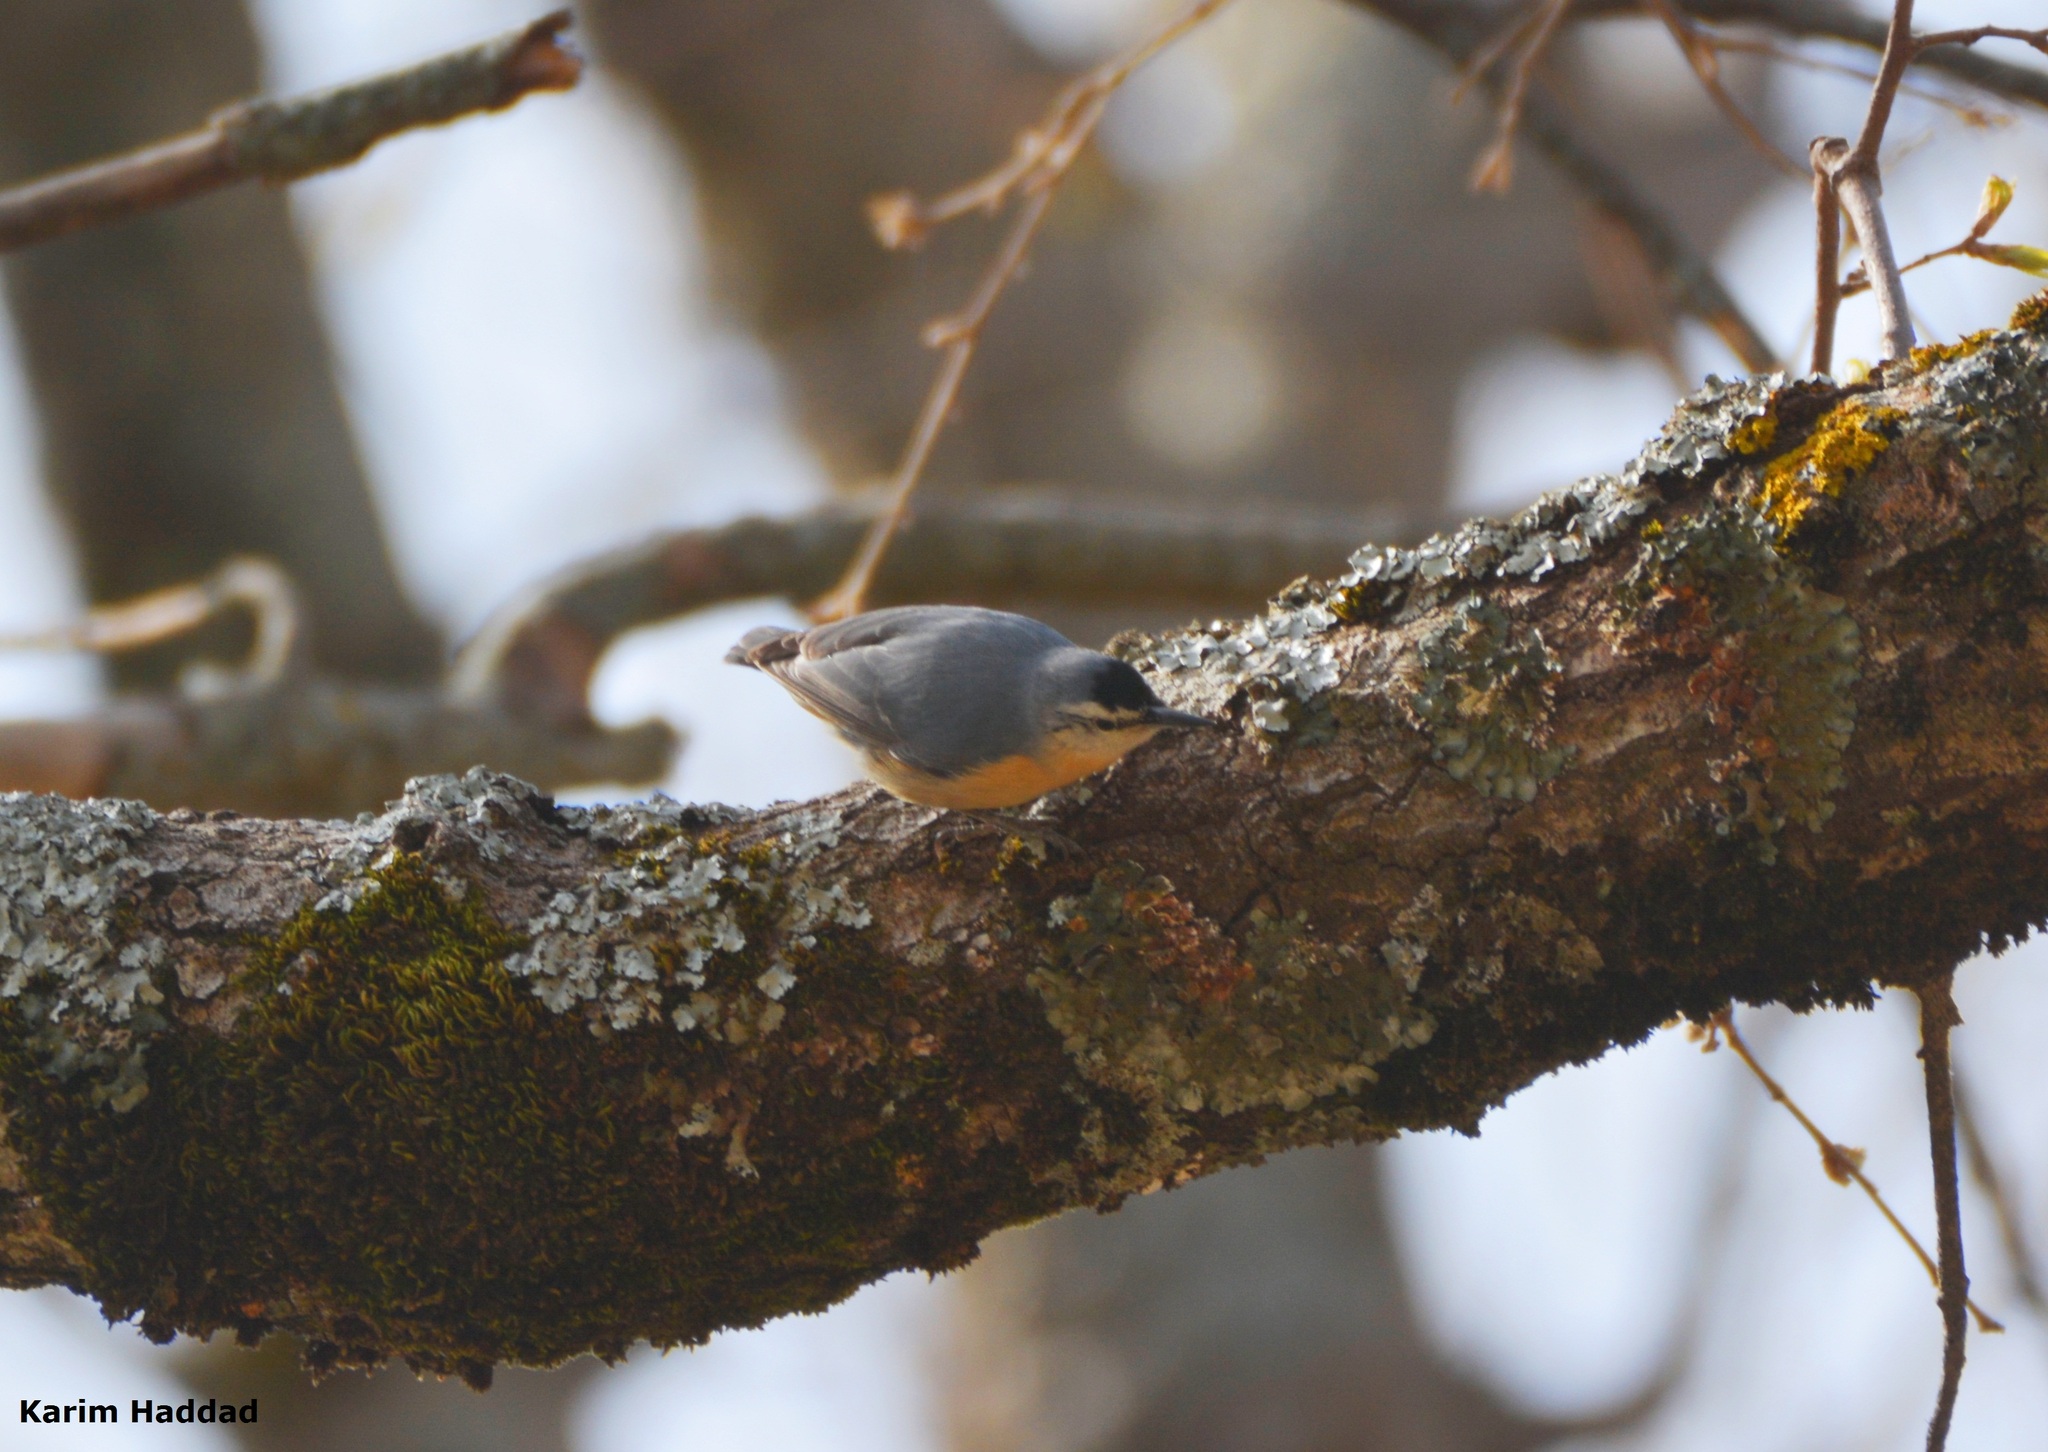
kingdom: Animalia
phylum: Chordata
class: Aves
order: Passeriformes
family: Sittidae
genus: Sitta
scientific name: Sitta ledanti
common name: Algerian nuthatch
